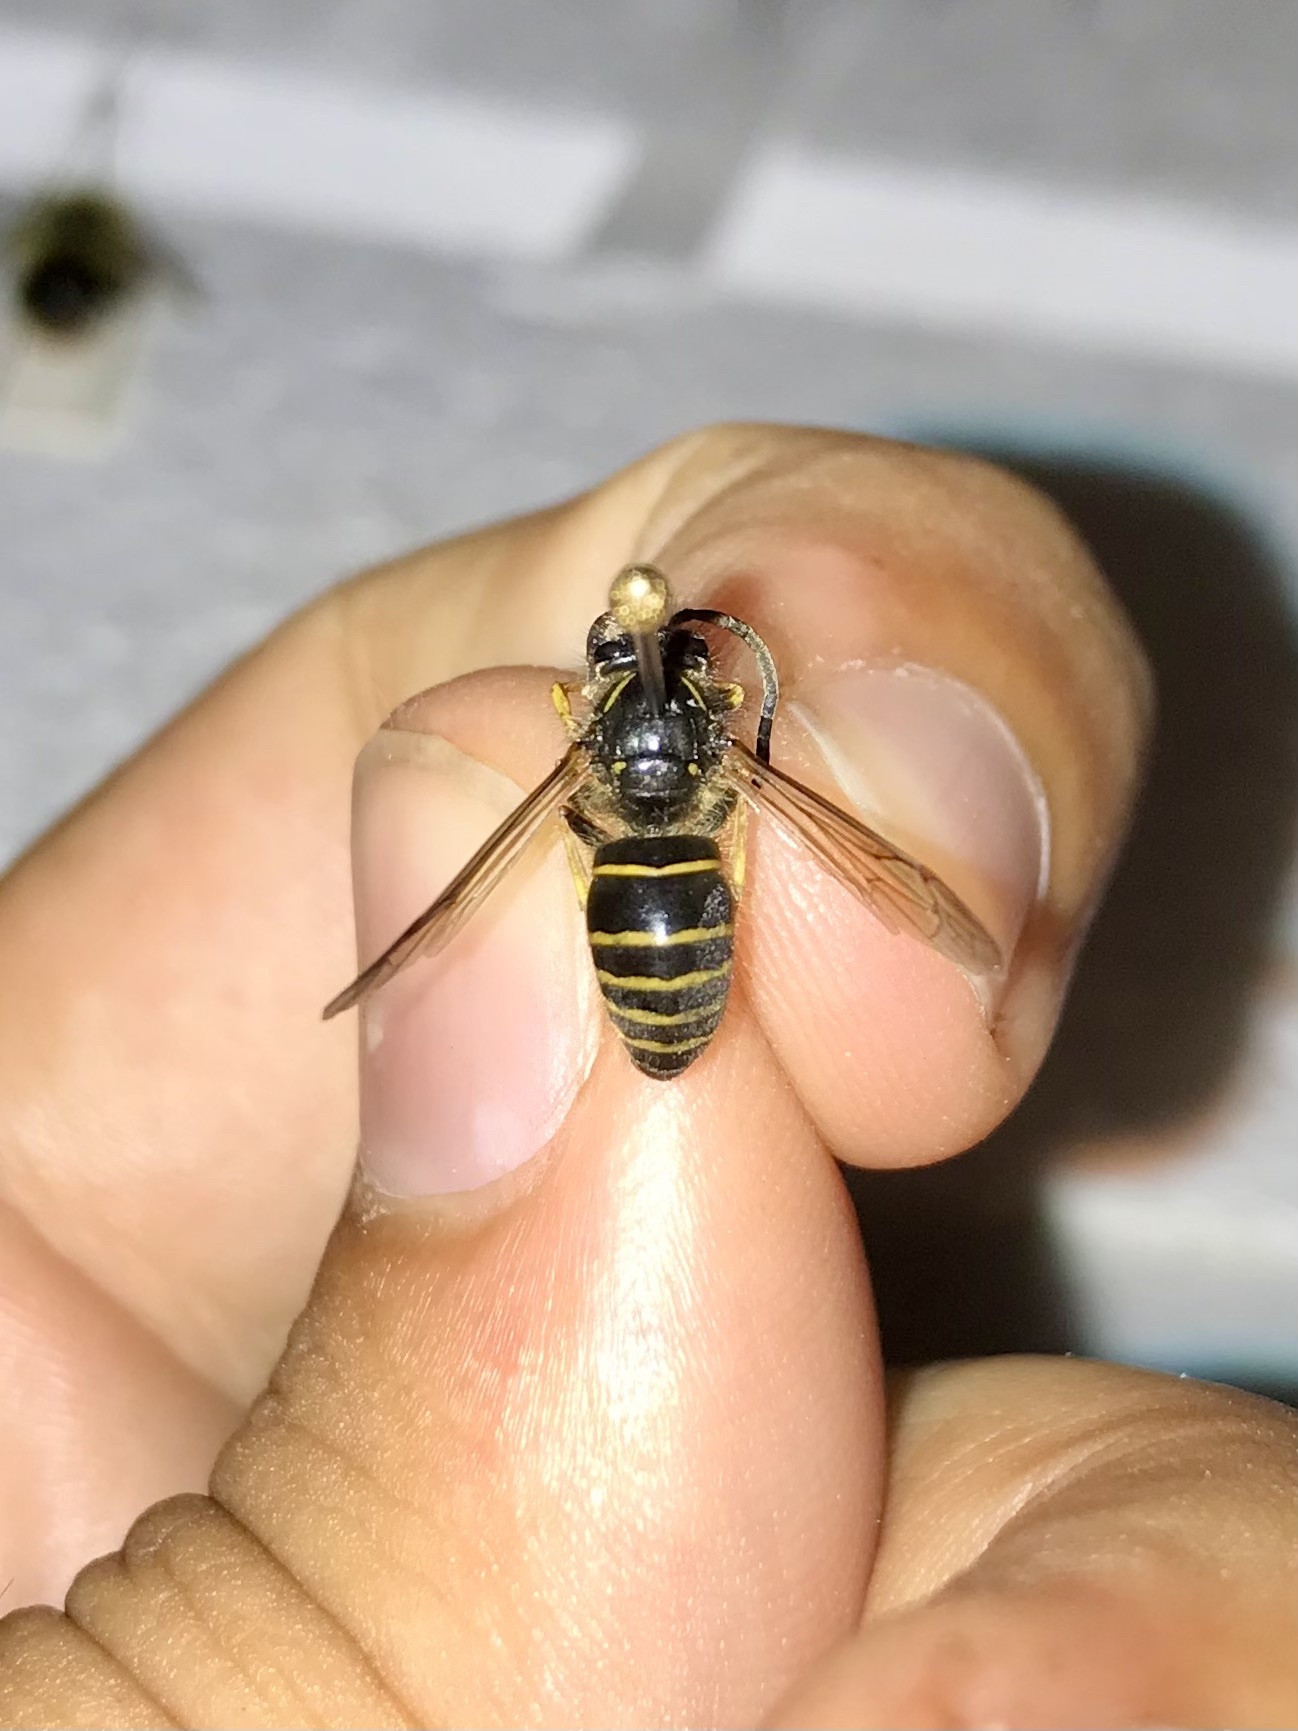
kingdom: Animalia
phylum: Arthropoda
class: Insecta
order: Hymenoptera
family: Vespidae
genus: Dolichovespula
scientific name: Dolichovespula norvegicoides
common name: Northern aerial yellowjacket
